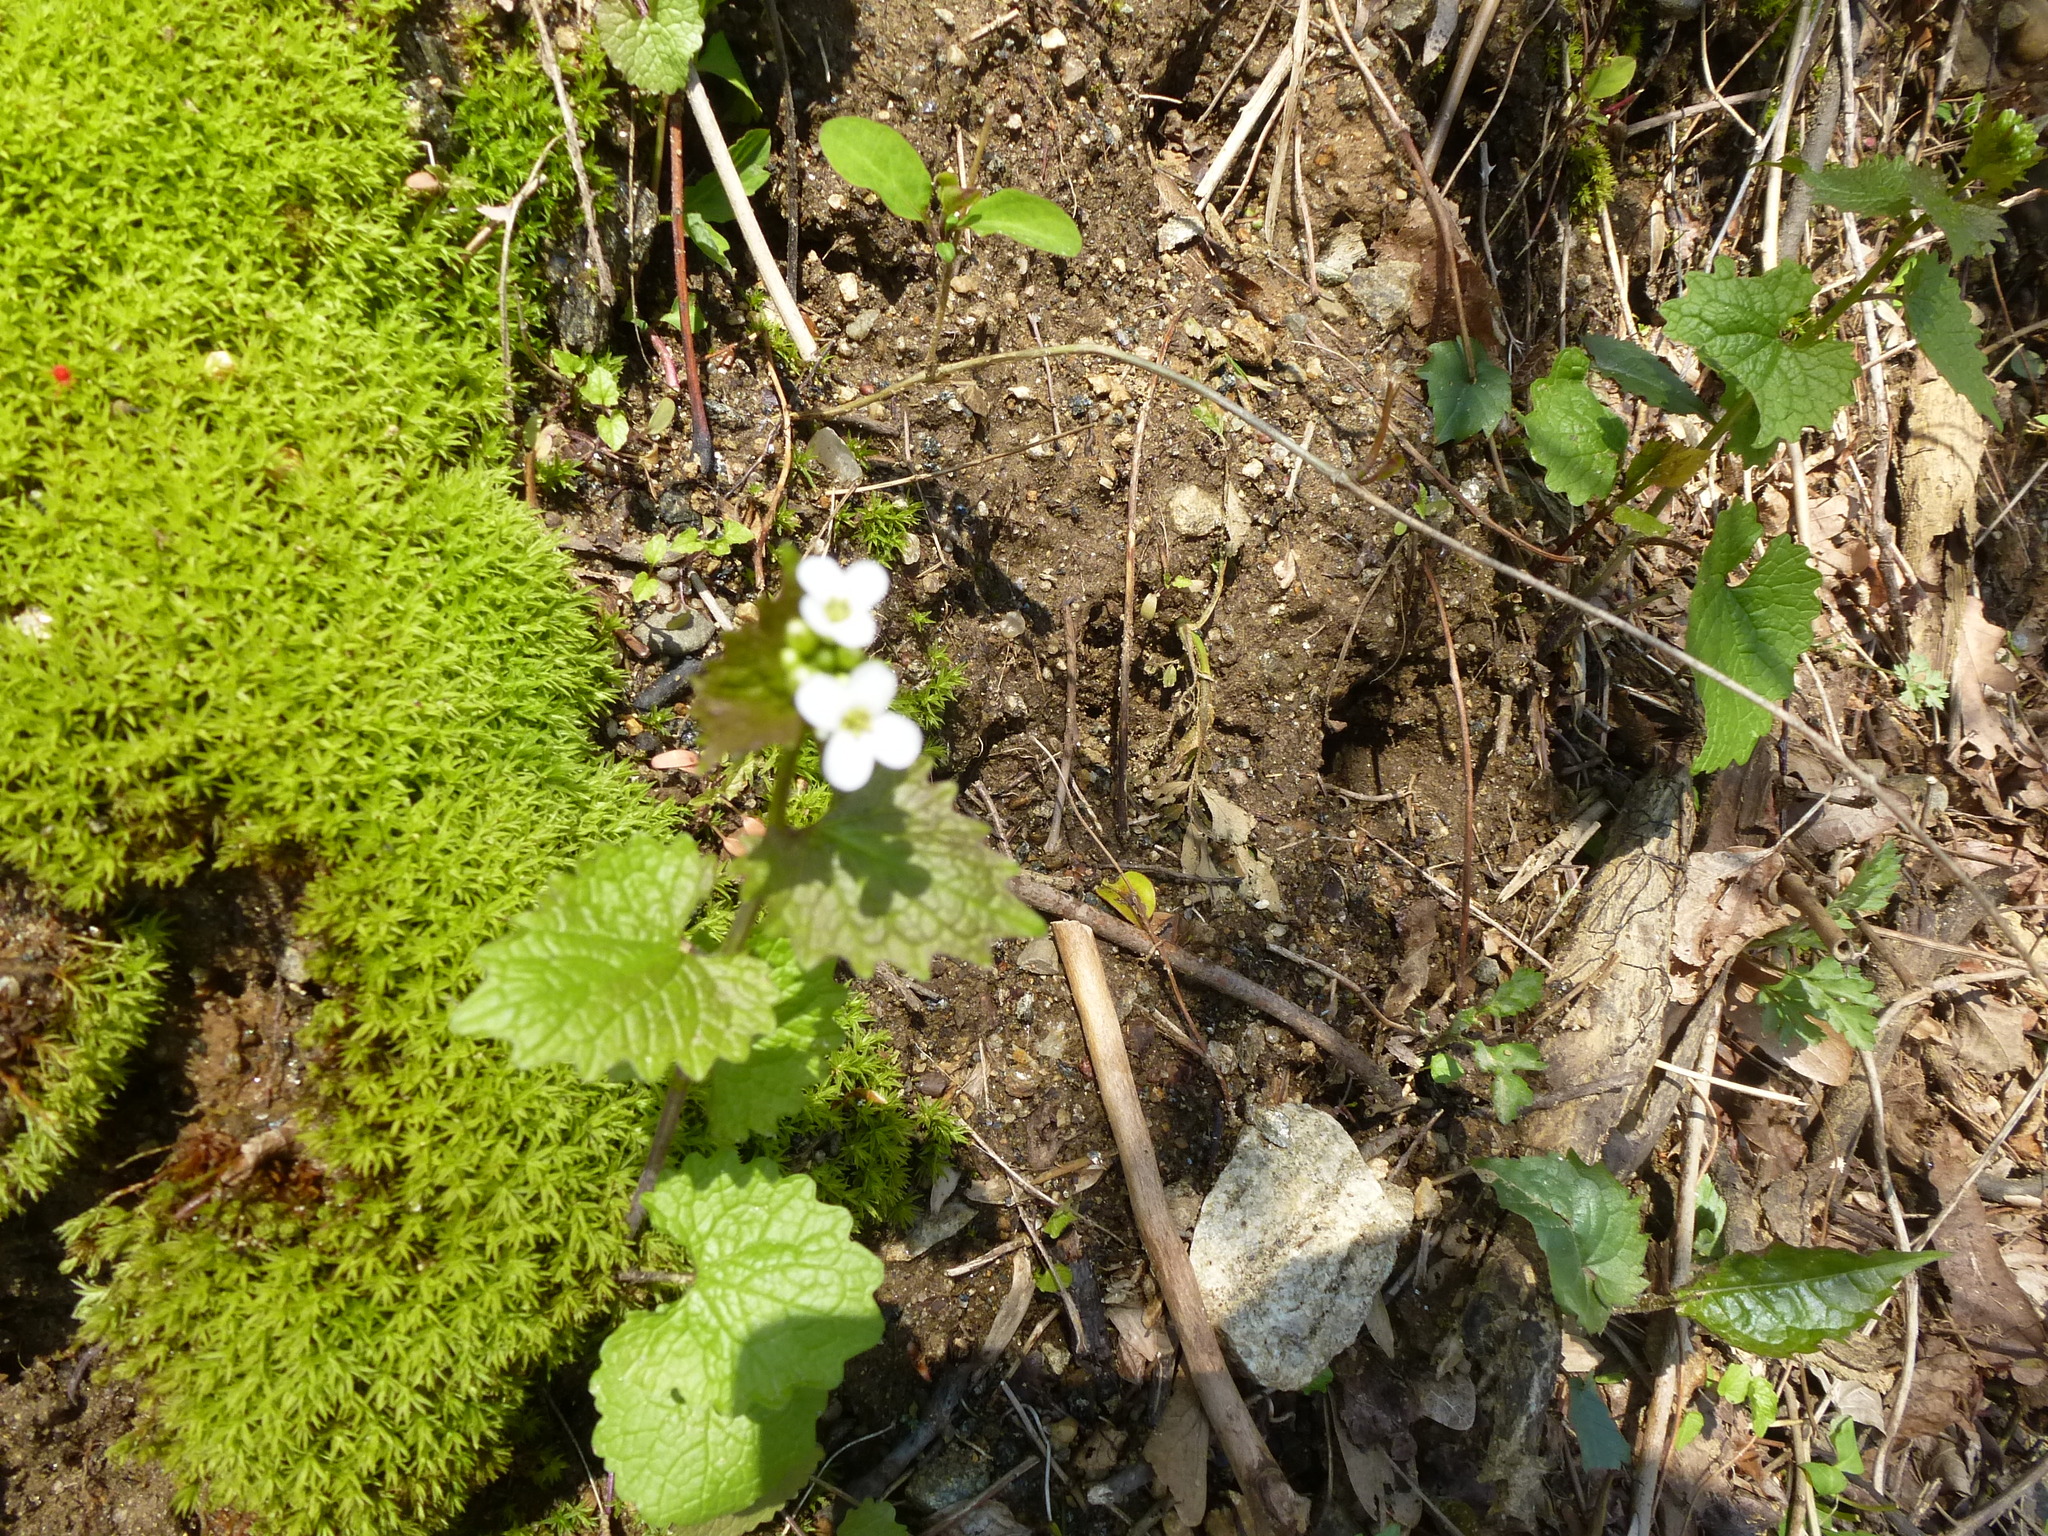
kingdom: Plantae
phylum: Tracheophyta
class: Magnoliopsida
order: Brassicales
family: Brassicaceae
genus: Alliaria
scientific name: Alliaria petiolata
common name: Garlic mustard
